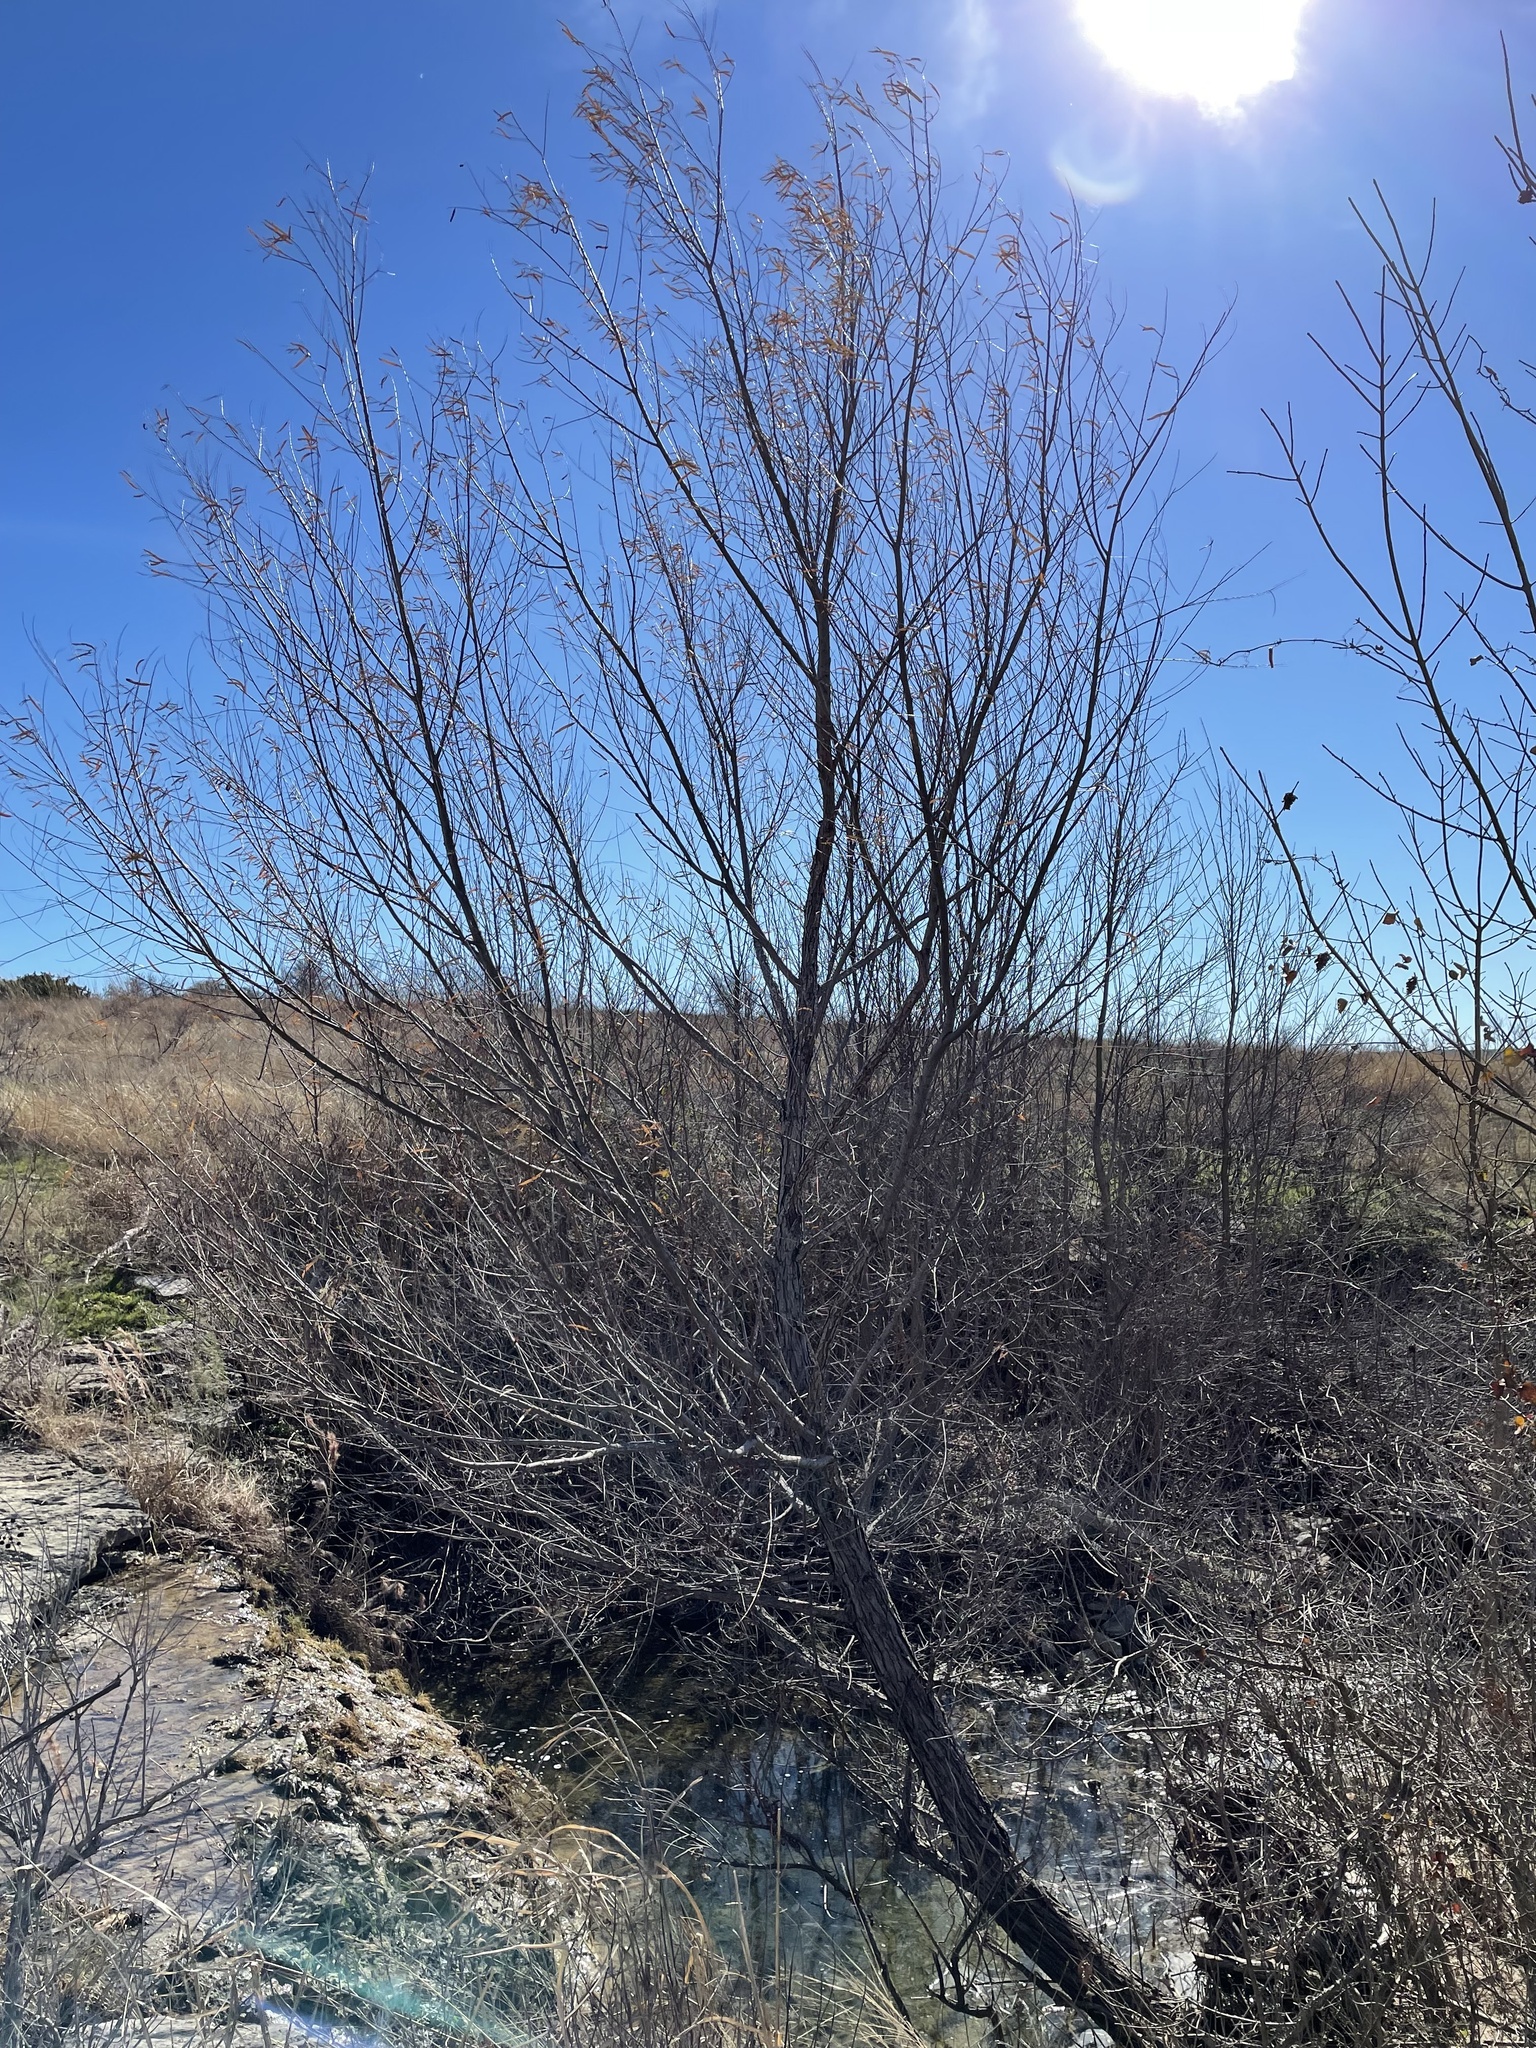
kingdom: Plantae
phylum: Tracheophyta
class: Magnoliopsida
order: Malpighiales
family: Salicaceae
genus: Salix
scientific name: Salix nigra
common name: Black willow
